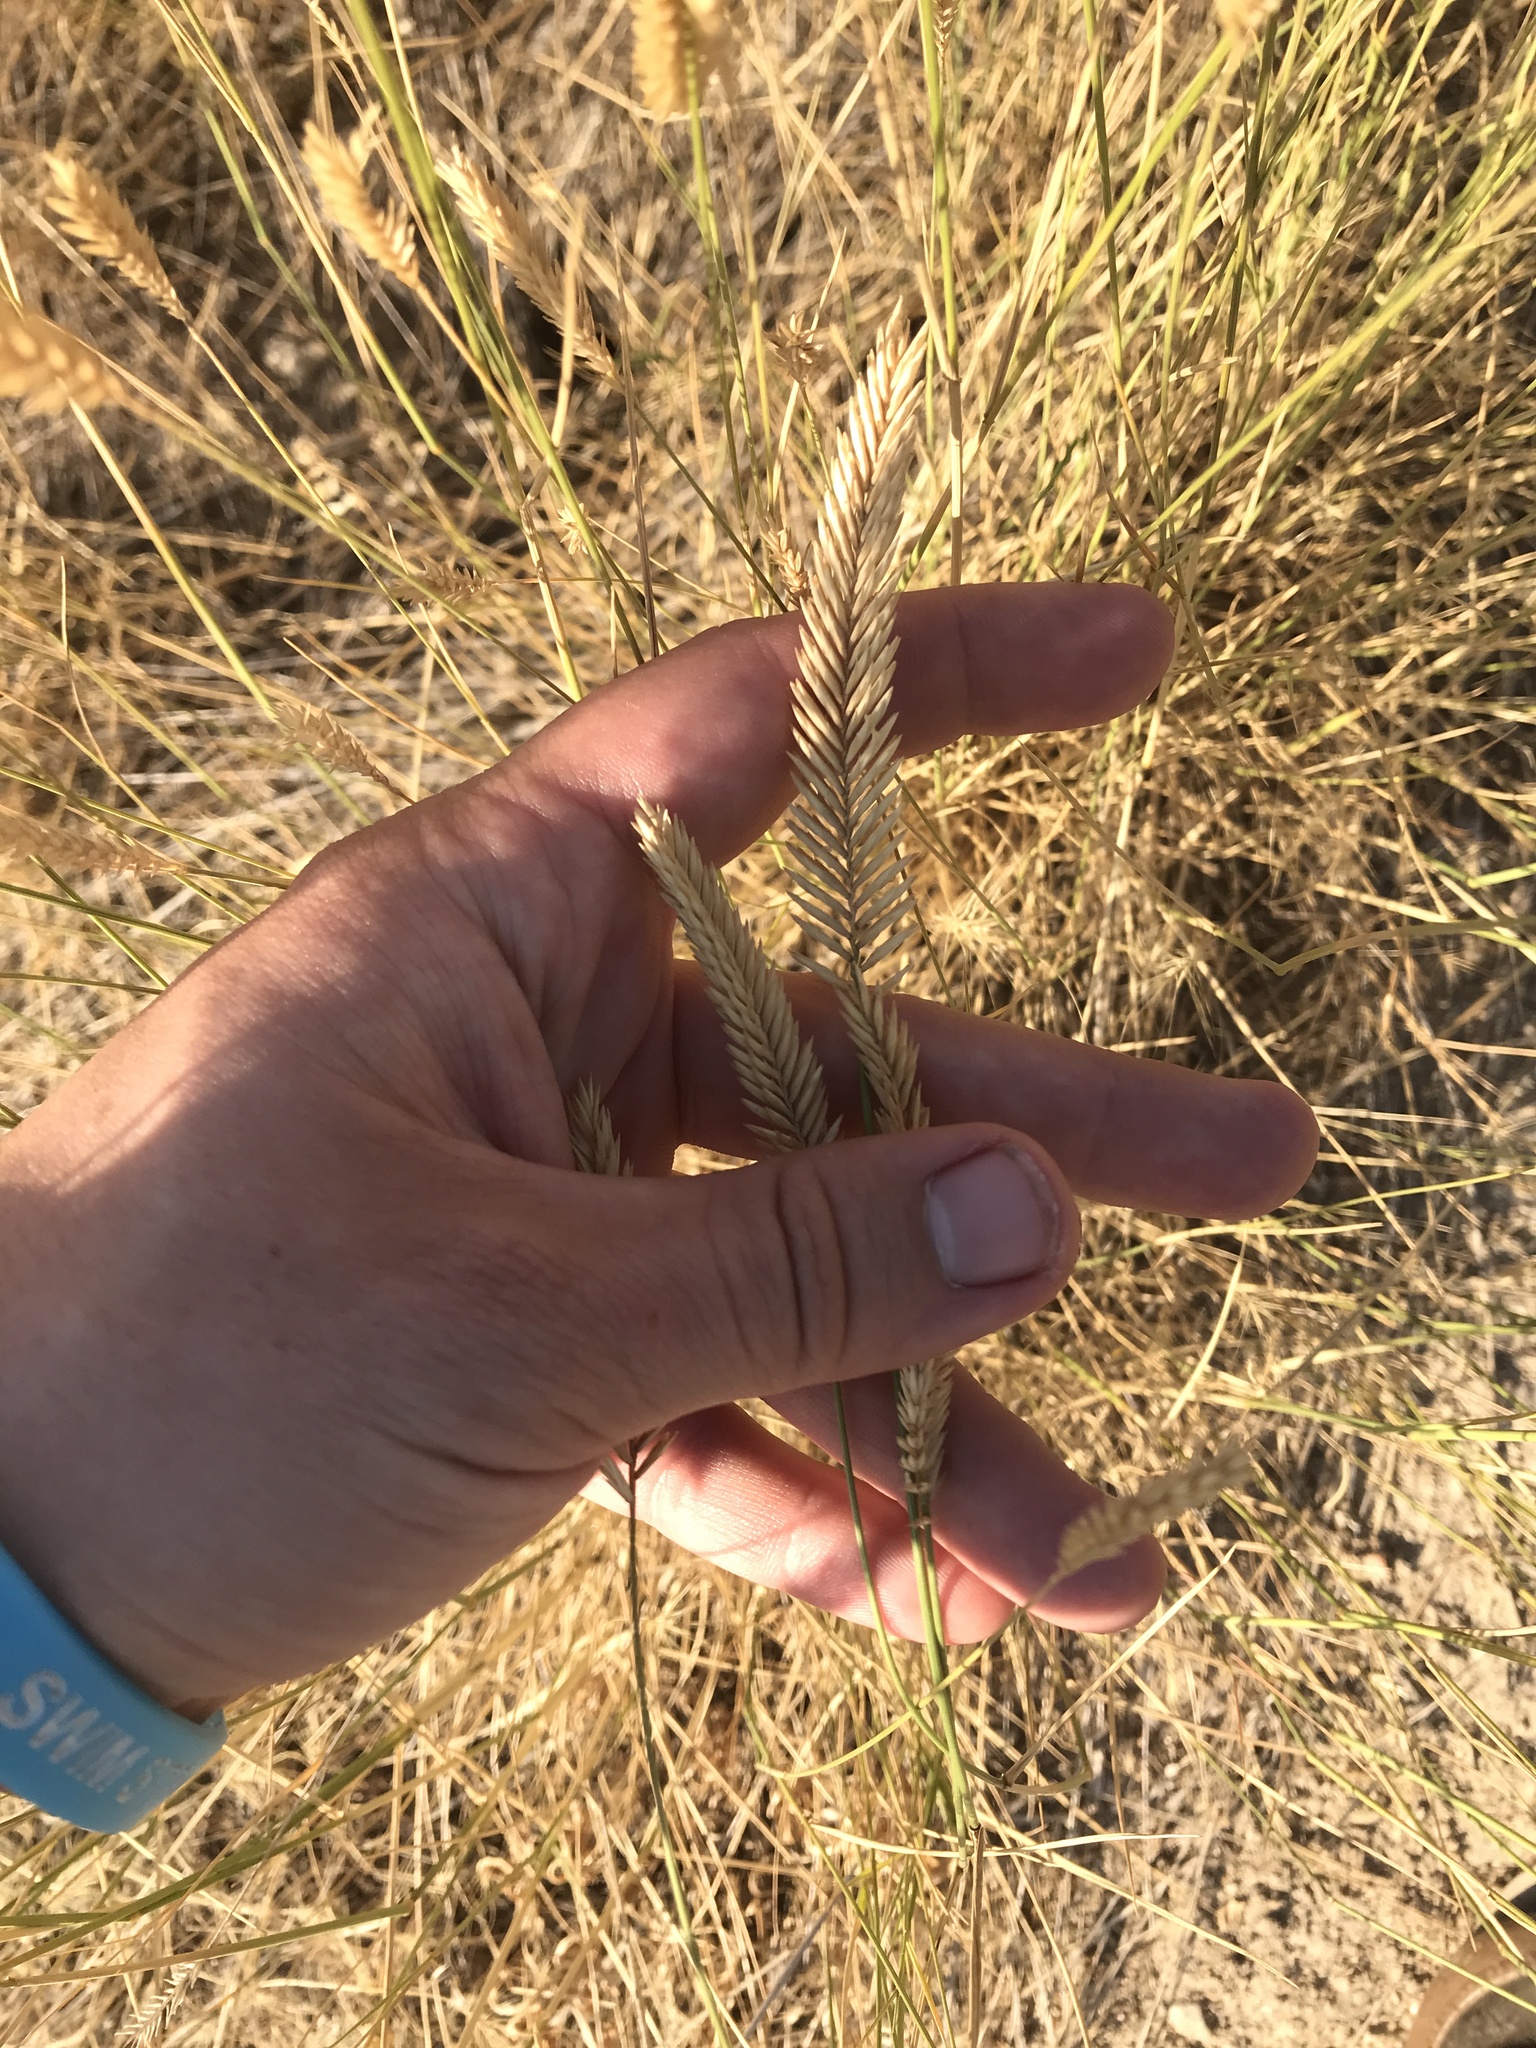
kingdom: Plantae
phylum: Tracheophyta
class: Liliopsida
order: Poales
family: Poaceae
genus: Agropyron
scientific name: Agropyron cristatum
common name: Crested wheatgrass
